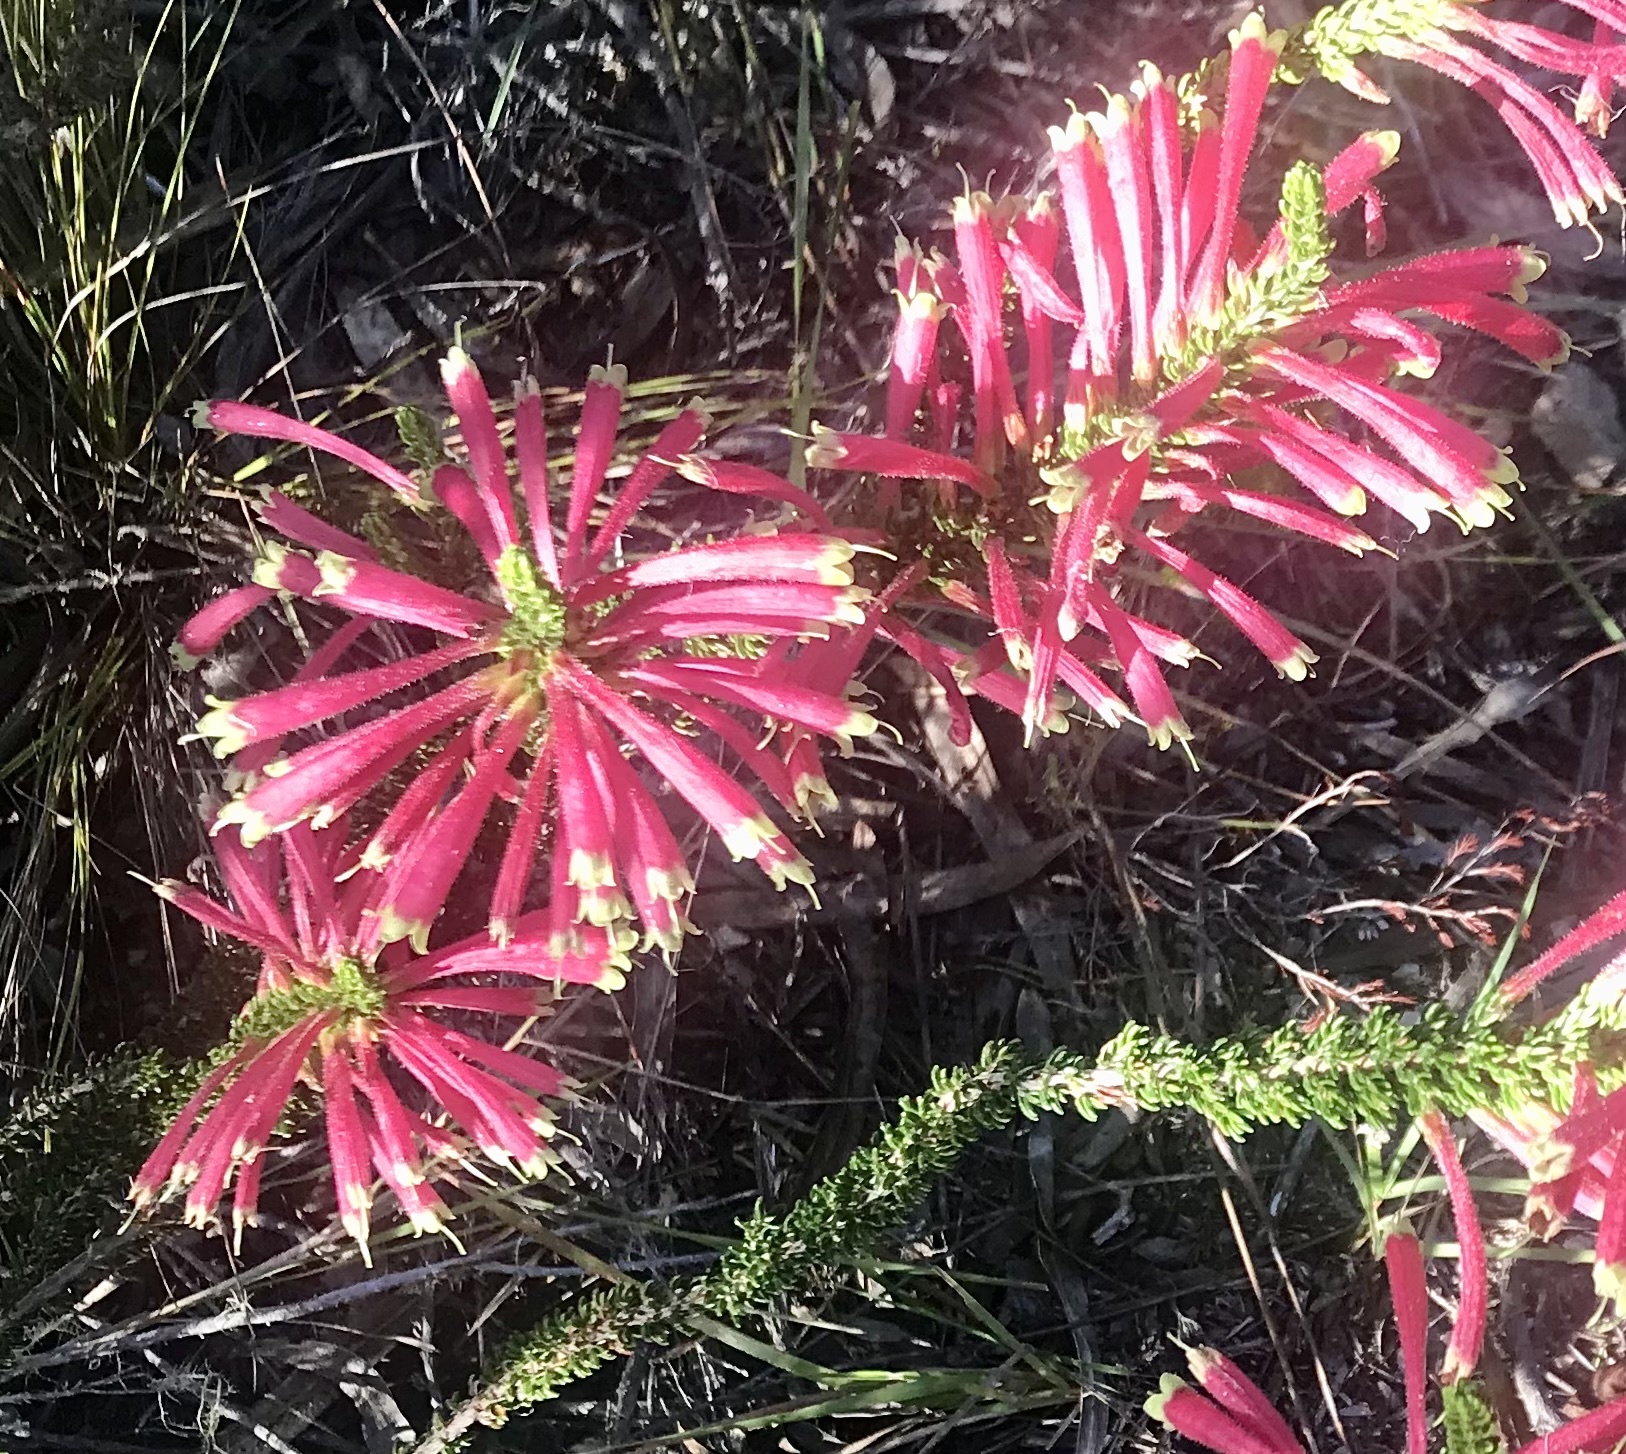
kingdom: Plantae
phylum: Tracheophyta
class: Magnoliopsida
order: Ericales
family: Ericaceae
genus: Erica
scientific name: Erica densifolia
